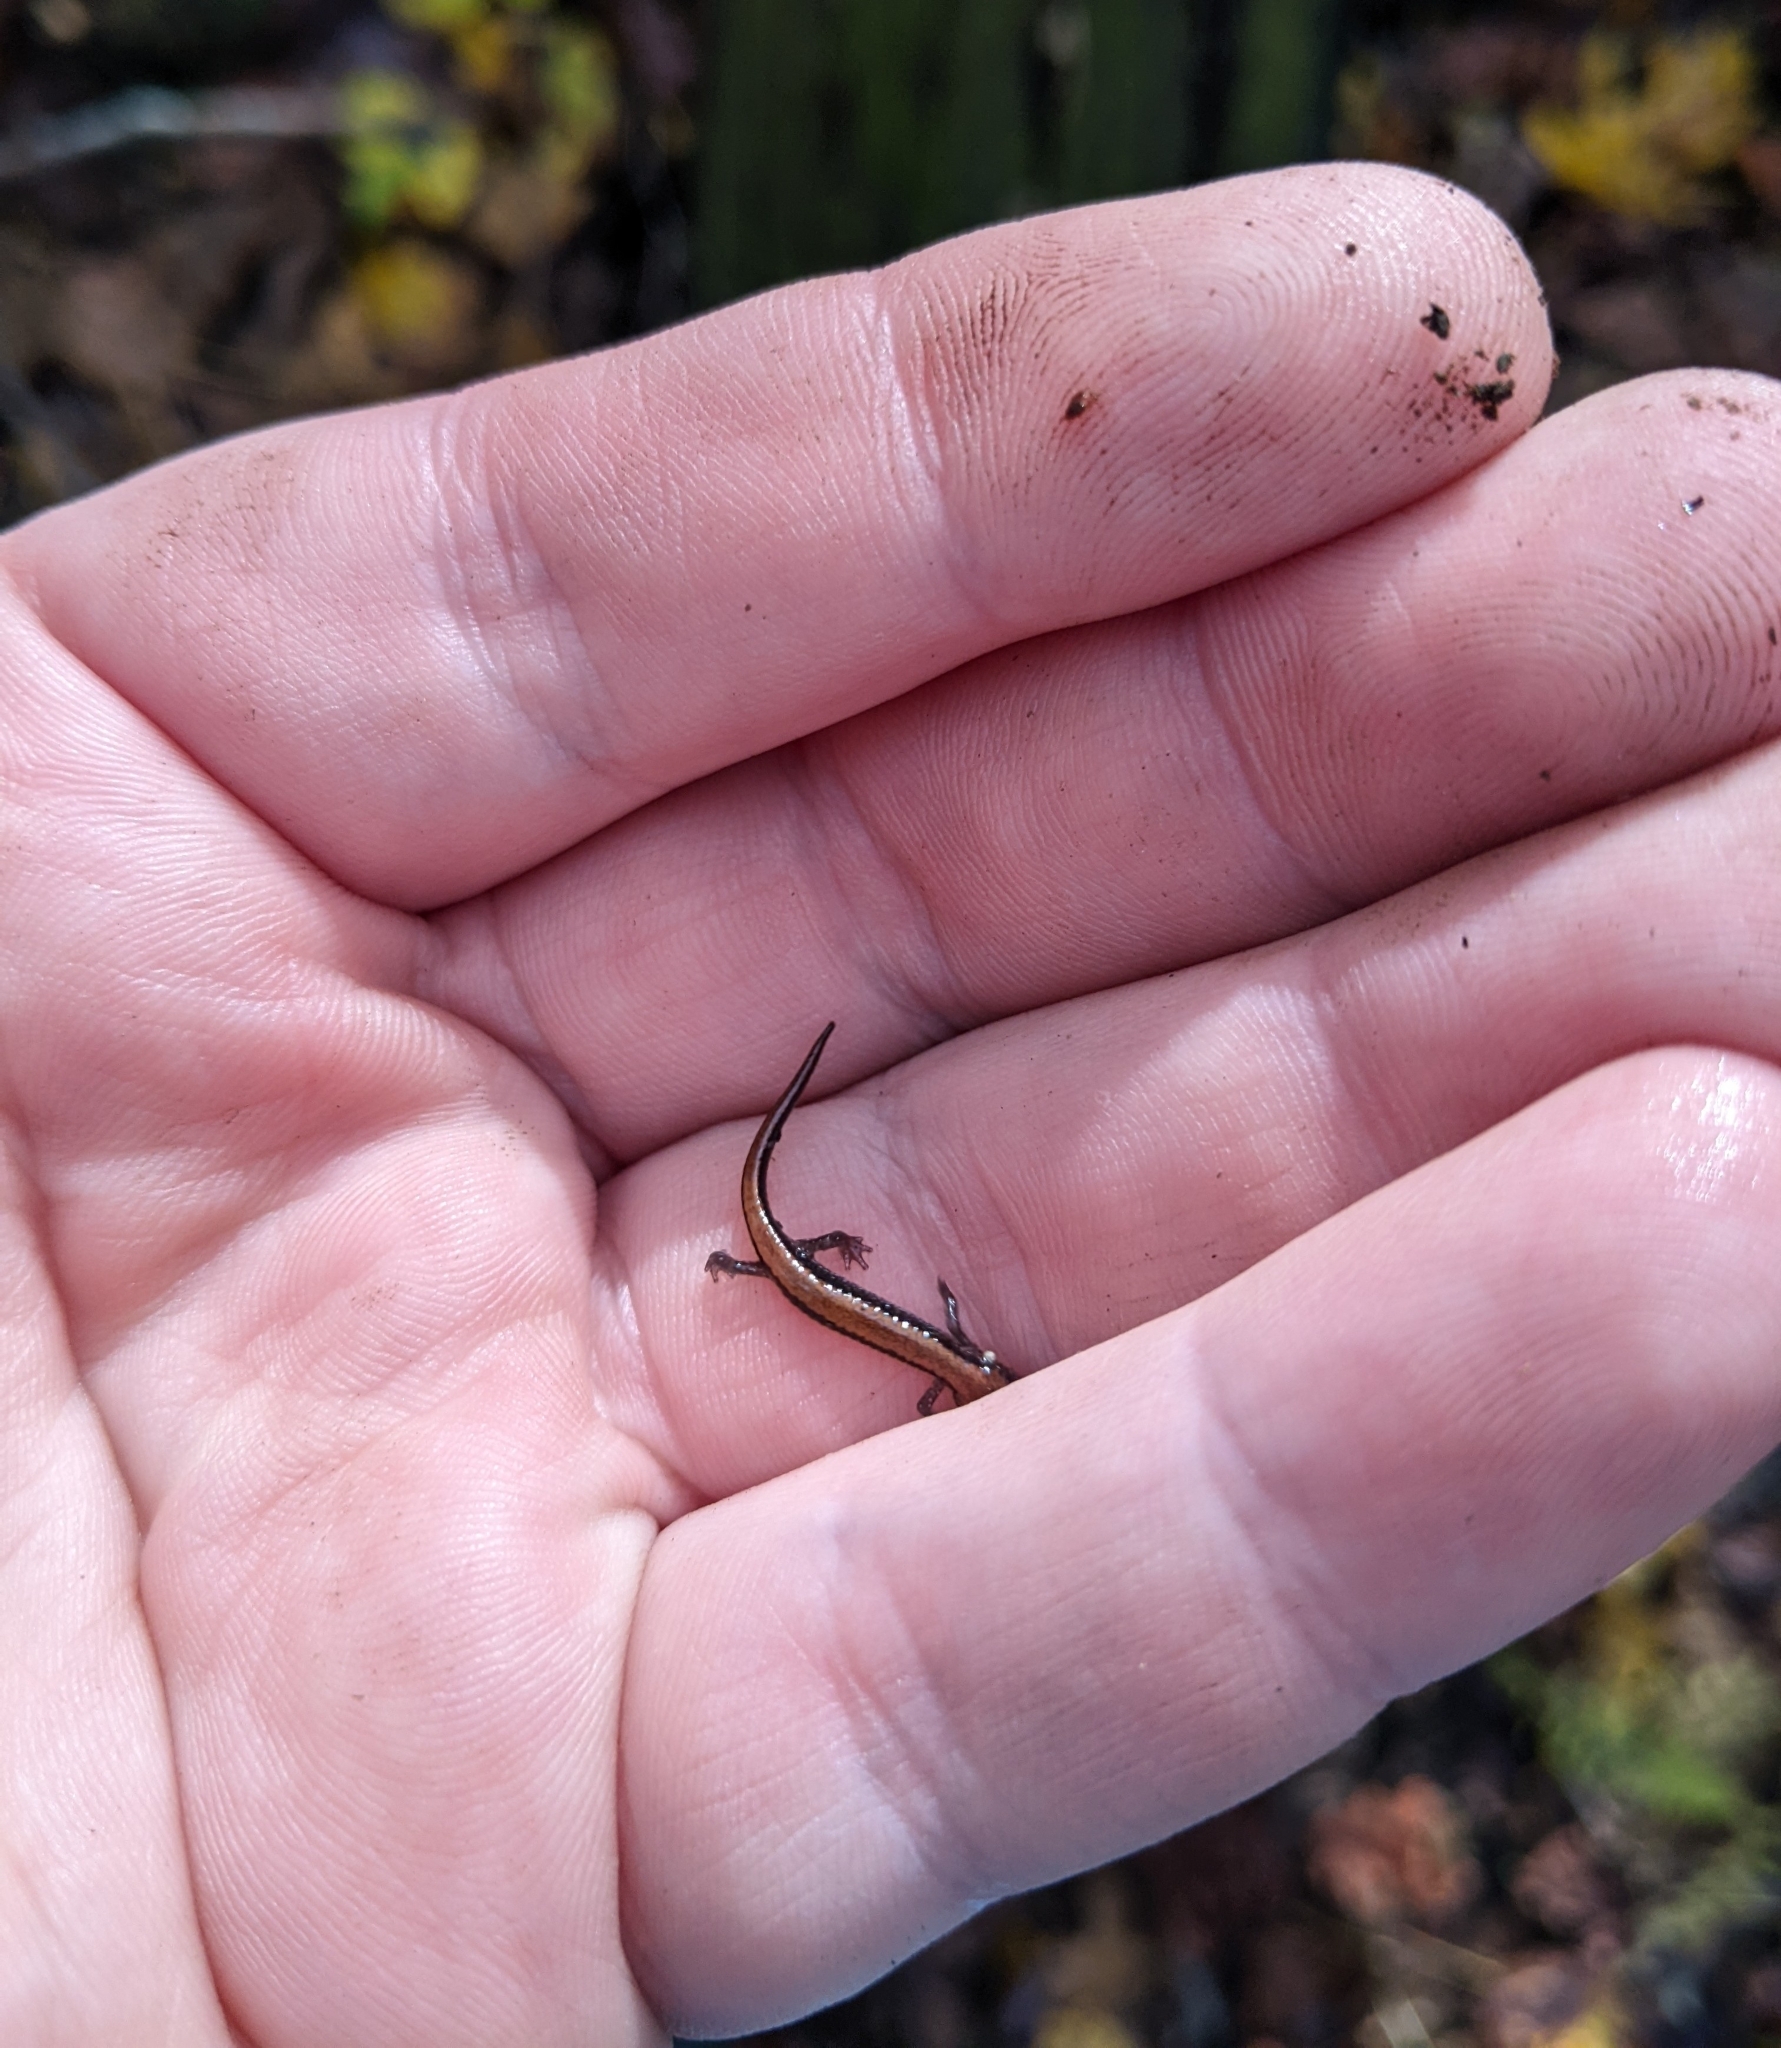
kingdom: Animalia
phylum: Chordata
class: Amphibia
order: Caudata
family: Plethodontidae
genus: Plethodon
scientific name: Plethodon cinereus
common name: Redback salamander
